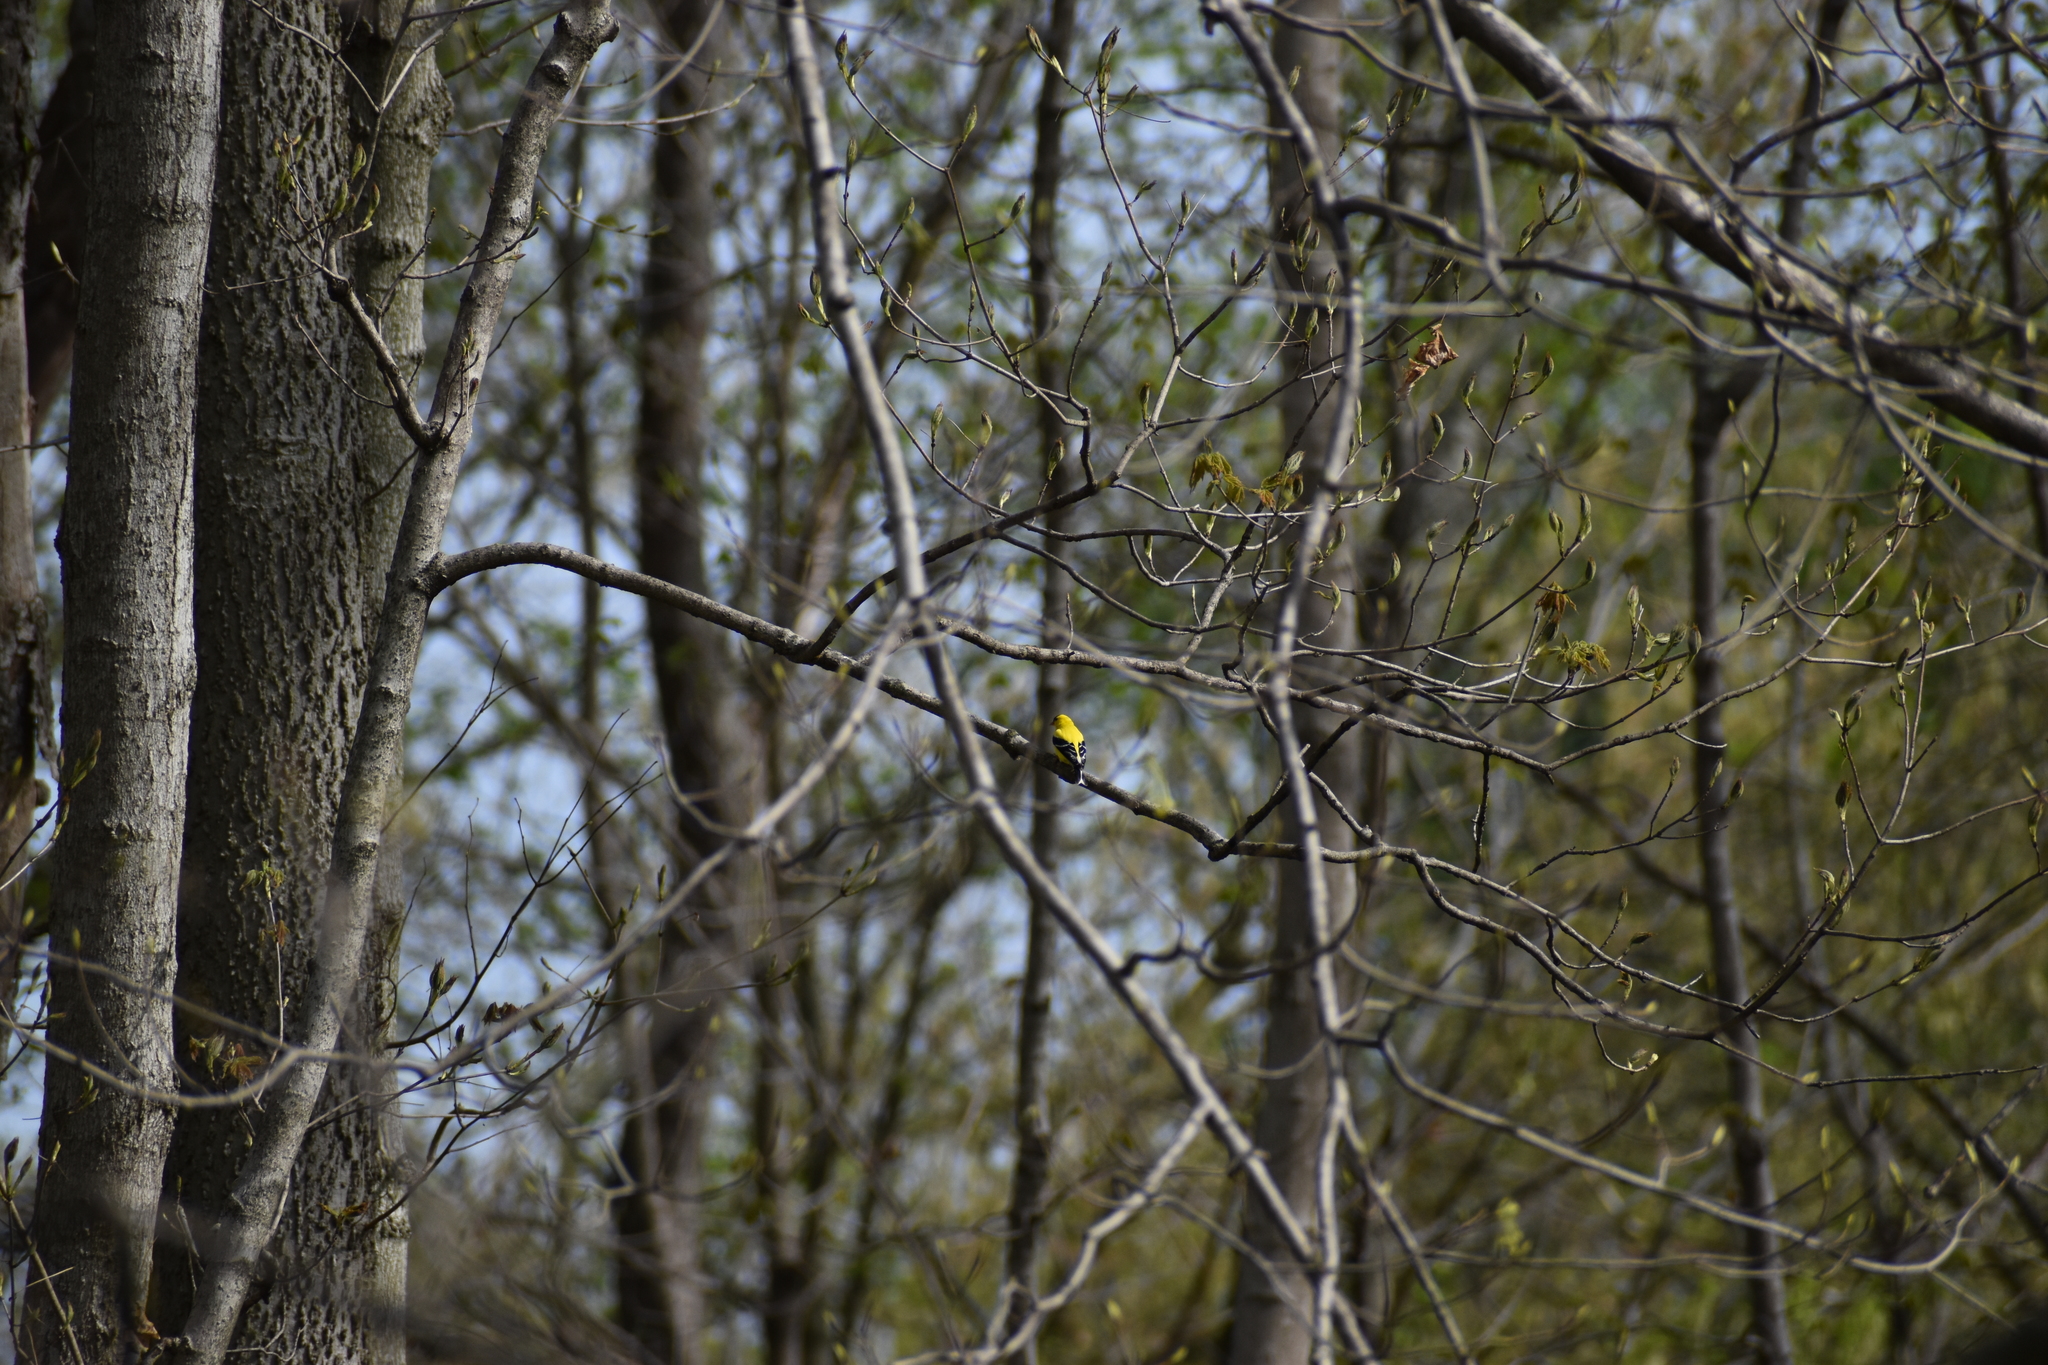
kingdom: Animalia
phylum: Chordata
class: Aves
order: Passeriformes
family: Fringillidae
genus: Spinus
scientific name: Spinus tristis
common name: American goldfinch
